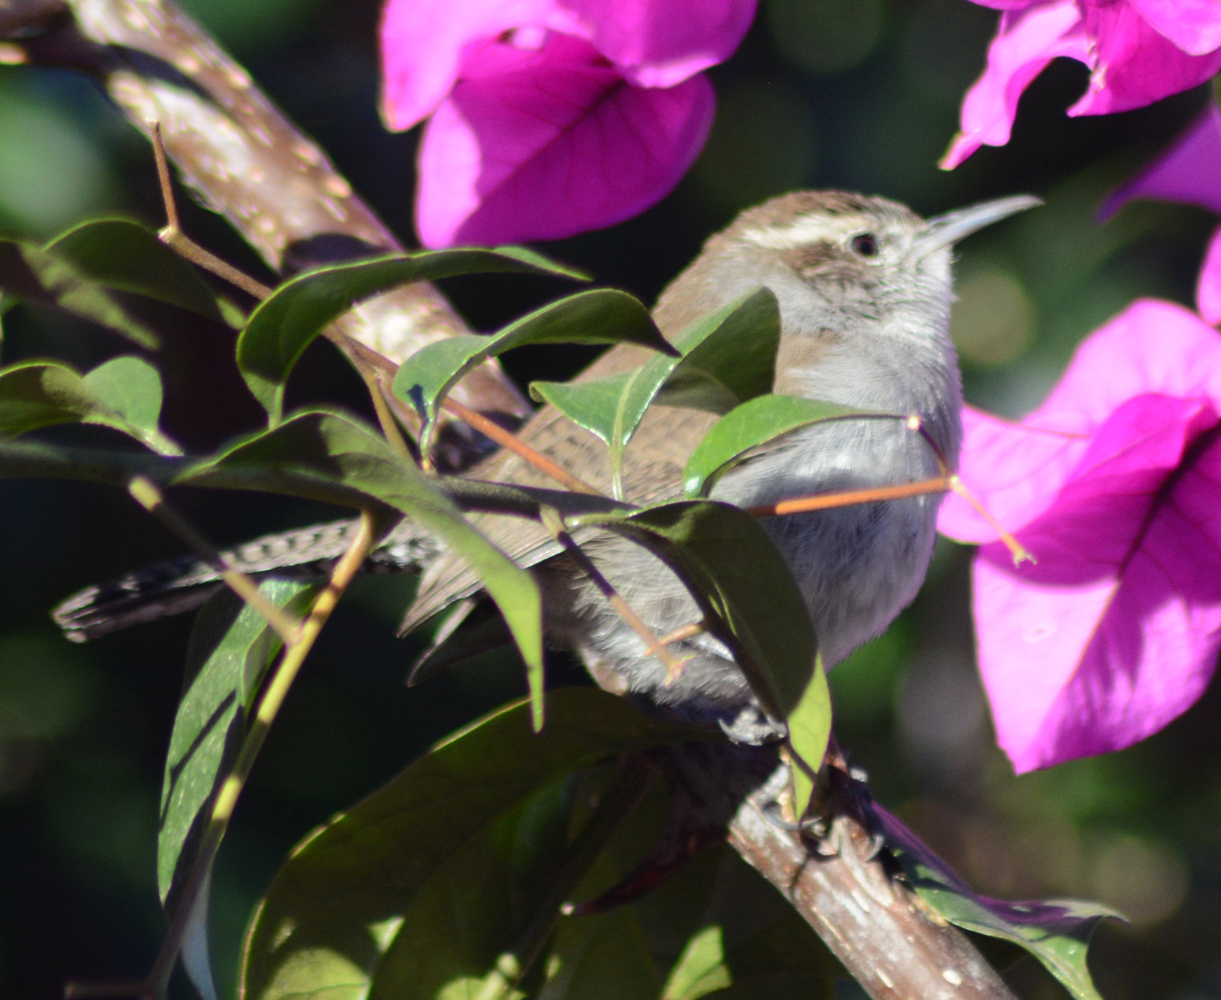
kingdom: Animalia
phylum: Chordata
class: Aves
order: Passeriformes
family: Troglodytidae
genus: Thryomanes
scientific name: Thryomanes bewickii
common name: Bewick's wren
